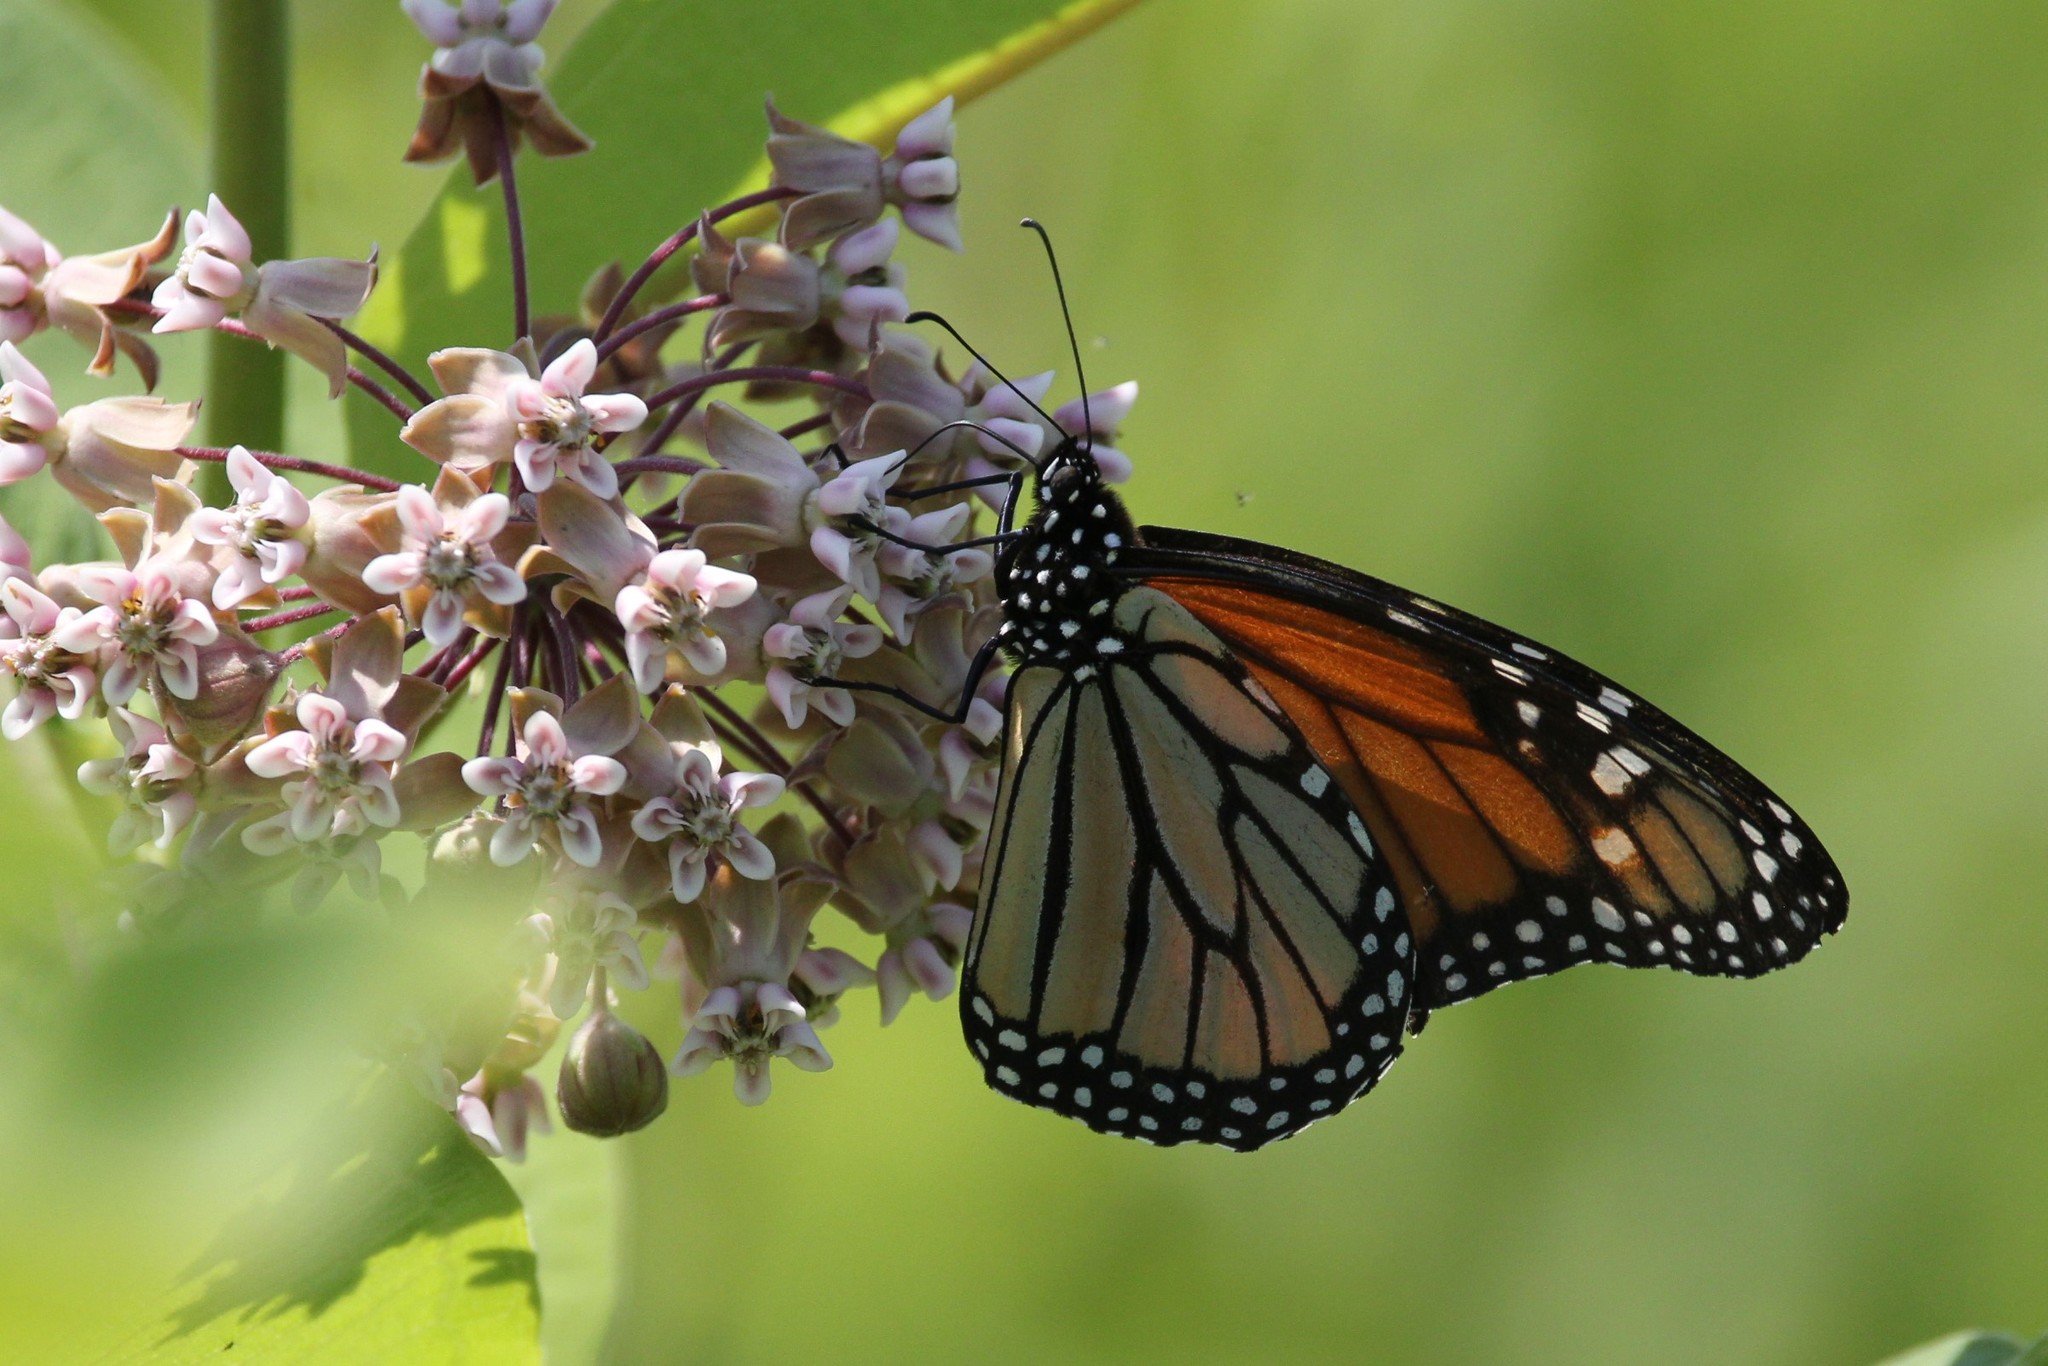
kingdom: Animalia
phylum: Arthropoda
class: Insecta
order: Lepidoptera
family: Nymphalidae
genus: Danaus
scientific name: Danaus plexippus
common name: Monarch
